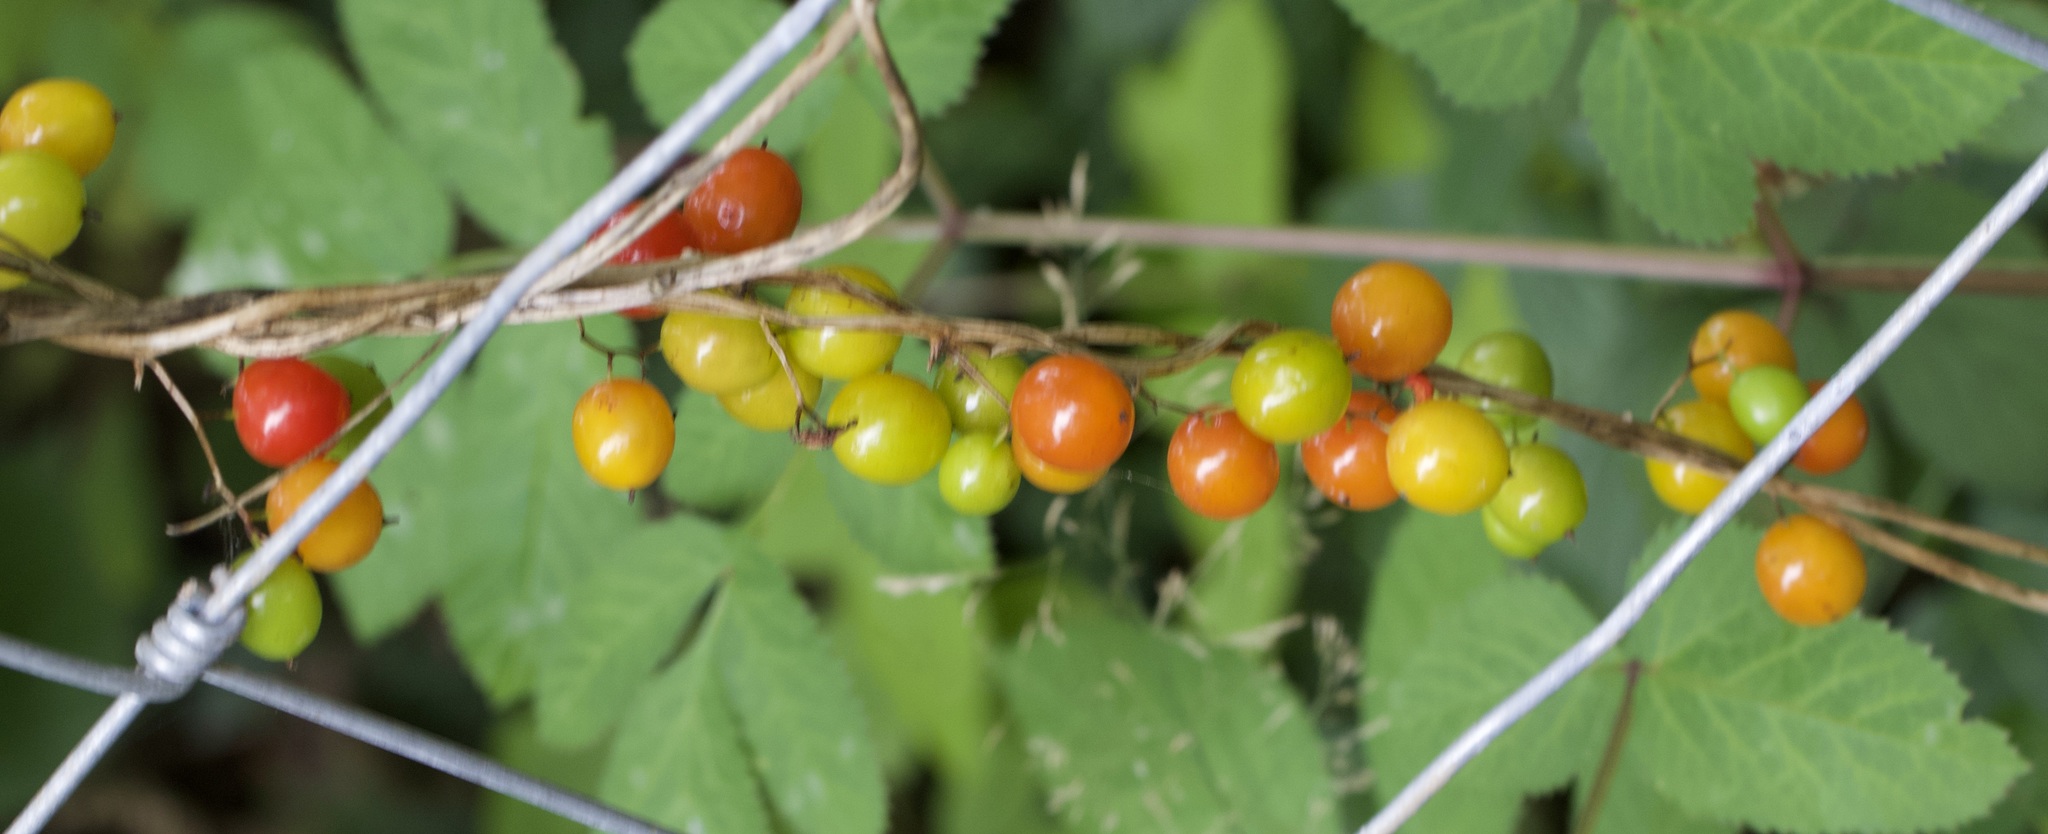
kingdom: Plantae
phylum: Tracheophyta
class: Liliopsida
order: Dioscoreales
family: Dioscoreaceae
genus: Dioscorea
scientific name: Dioscorea communis
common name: Black-bindweed
